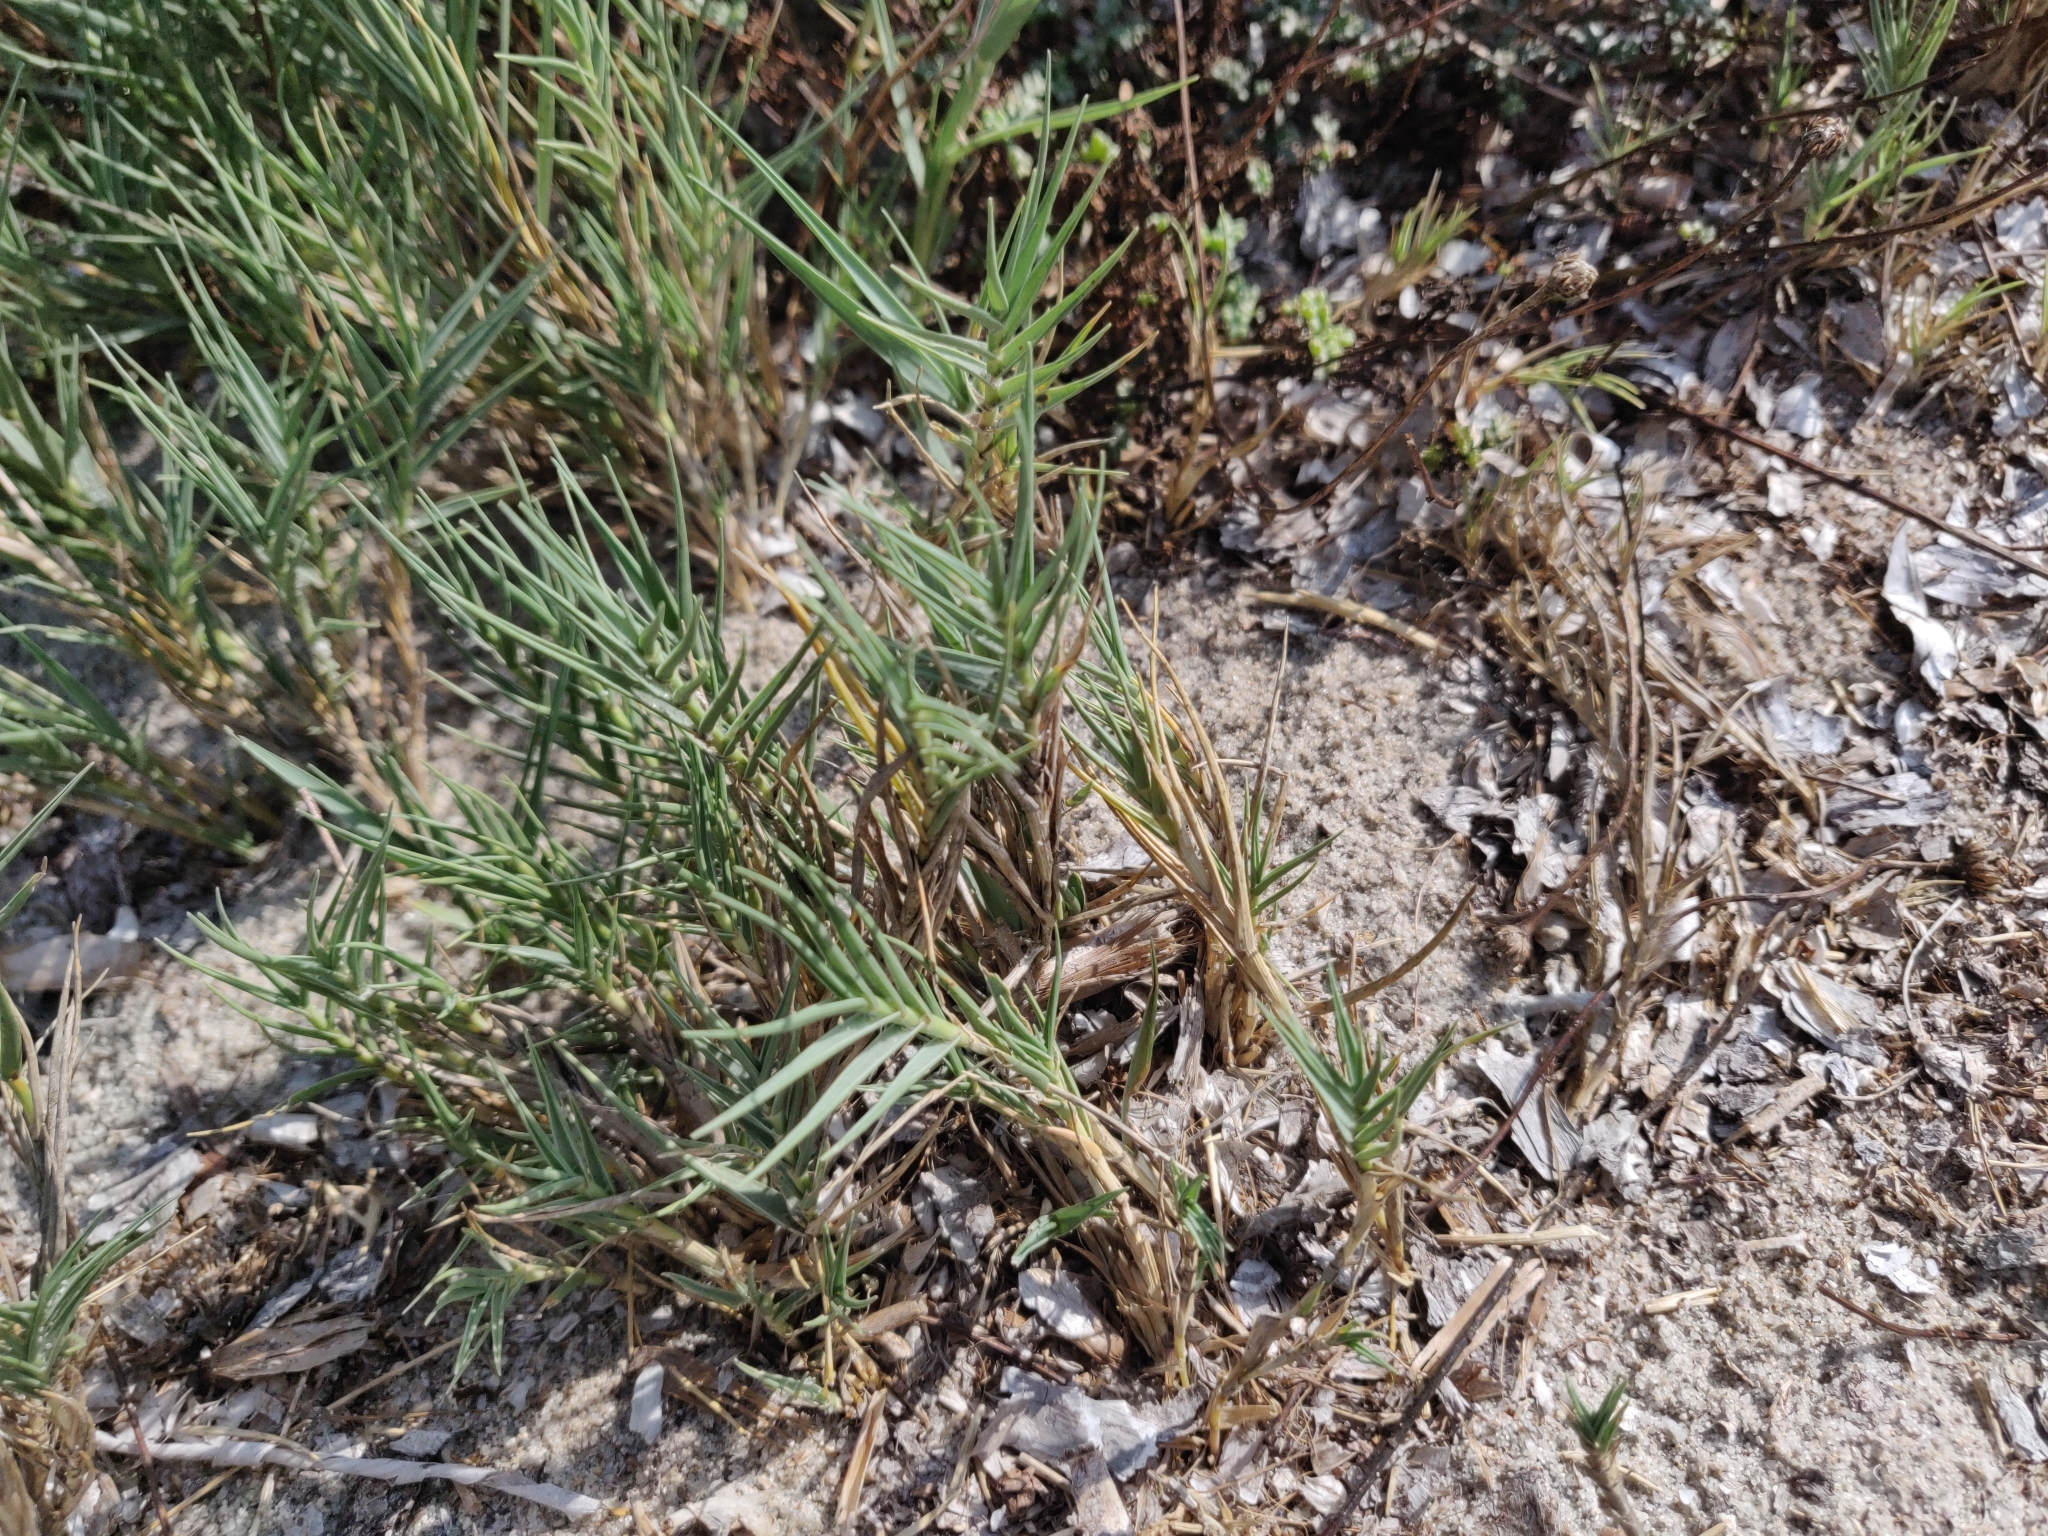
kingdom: Plantae
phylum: Tracheophyta
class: Liliopsida
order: Poales
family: Poaceae
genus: Sporobolus
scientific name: Sporobolus pungens
